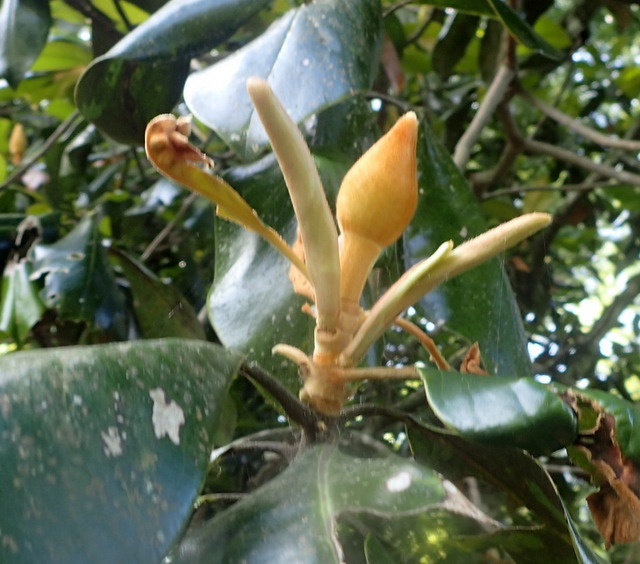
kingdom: Plantae
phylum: Tracheophyta
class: Magnoliopsida
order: Magnoliales
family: Magnoliaceae
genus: Magnolia
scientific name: Magnolia grandiflora
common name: Southern magnolia
